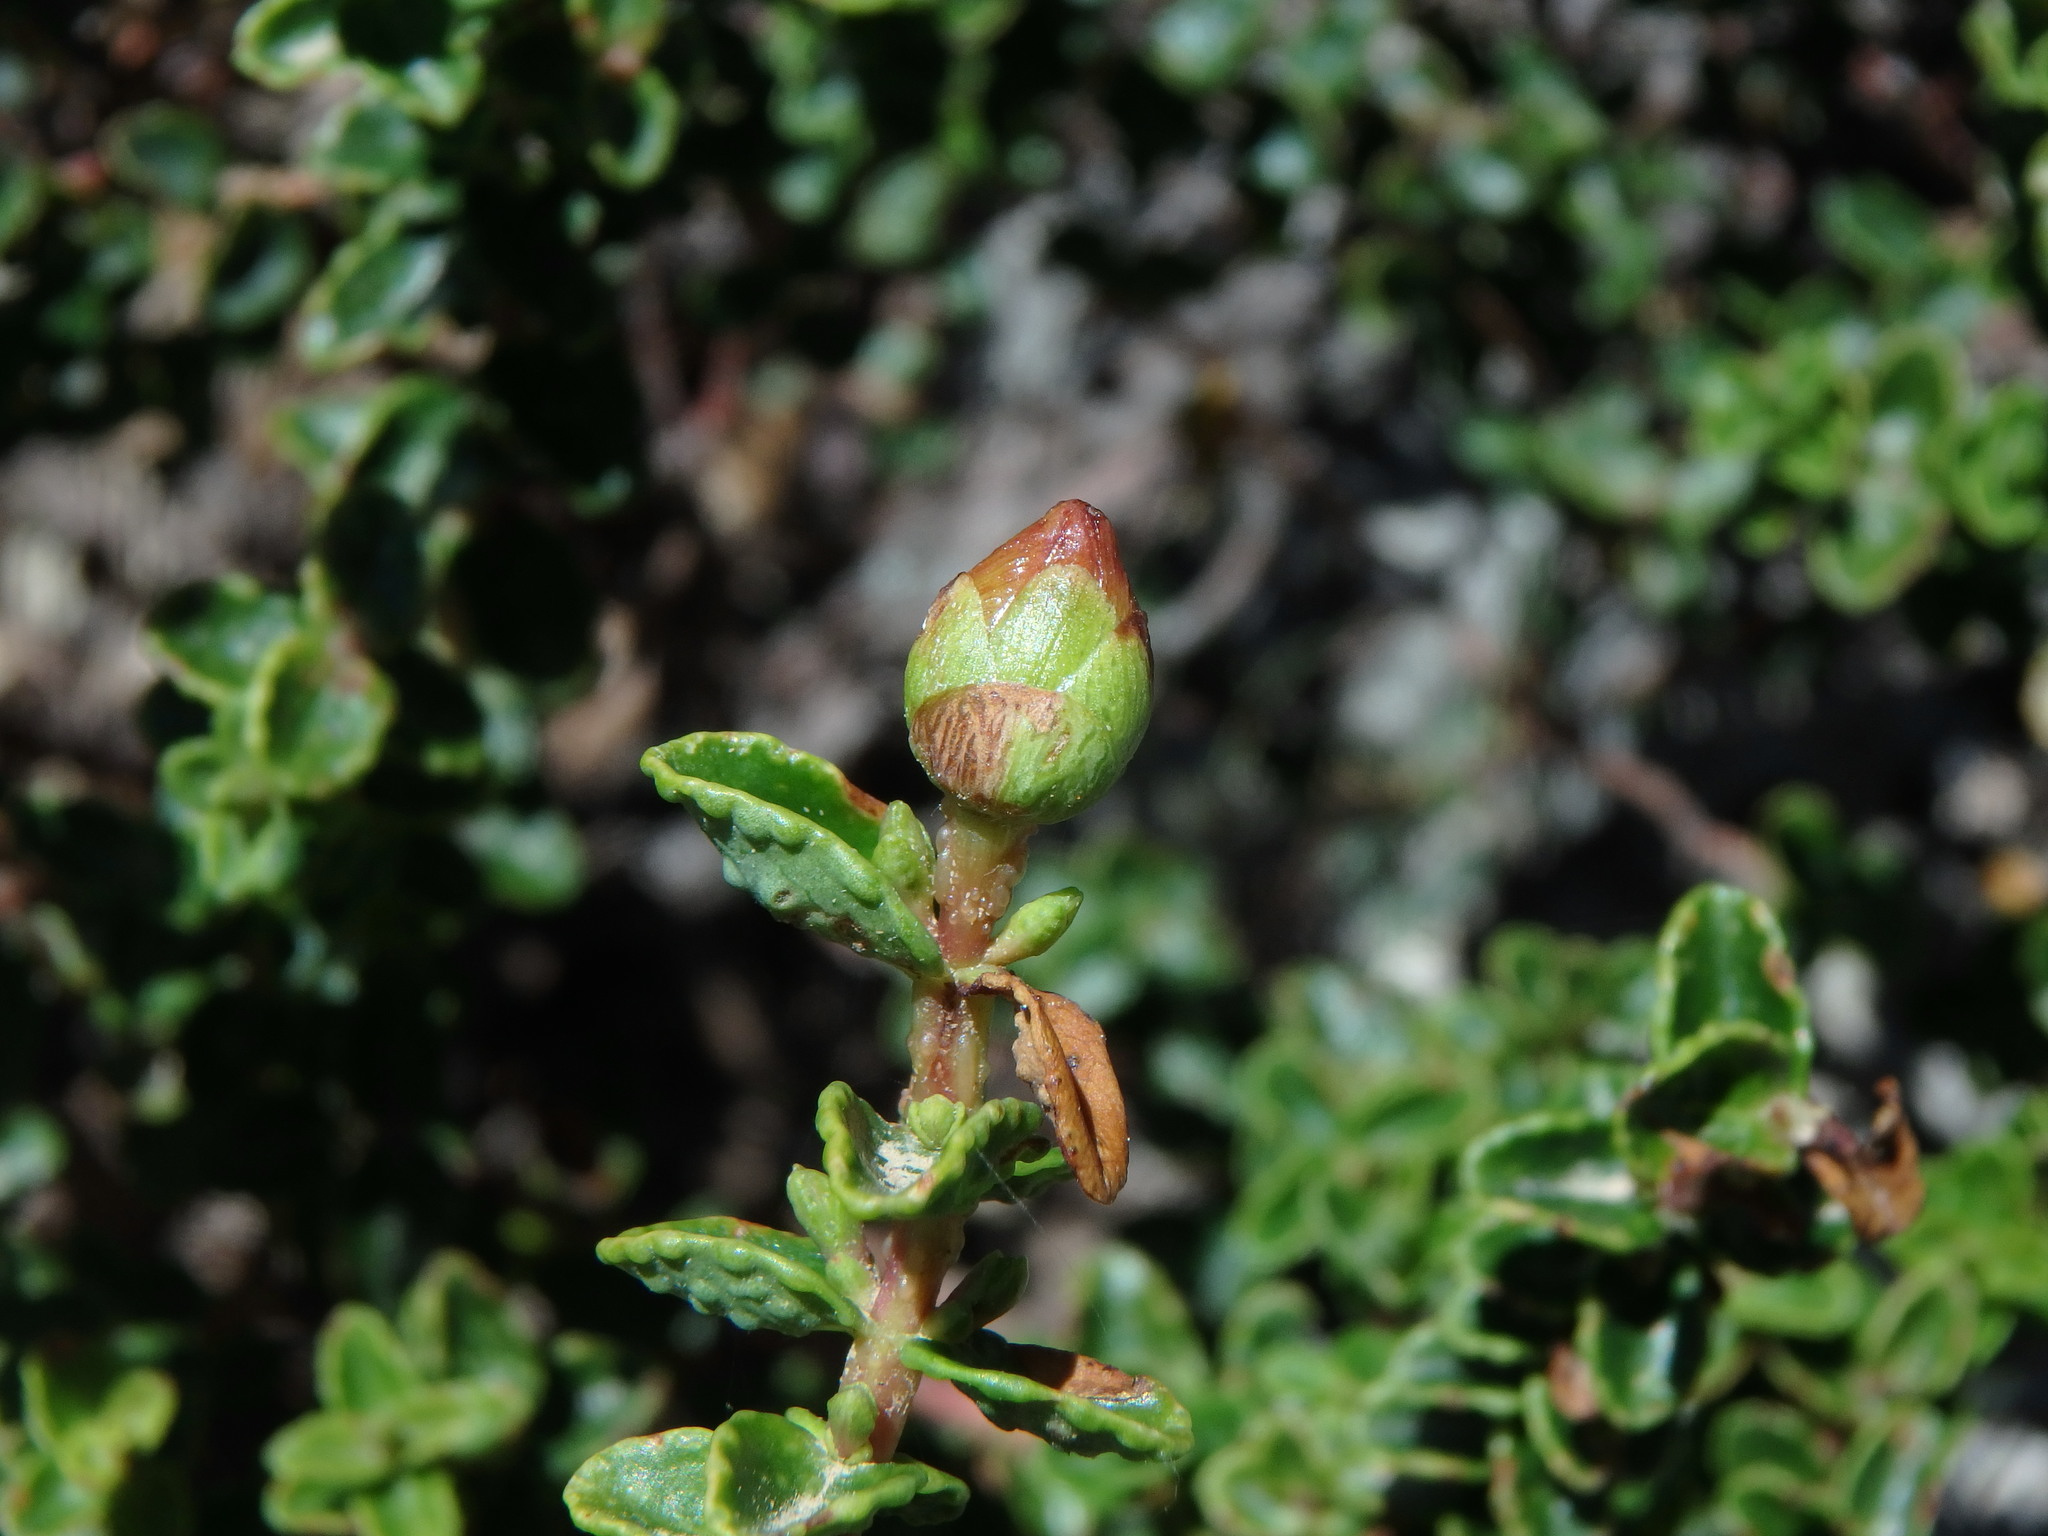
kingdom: Plantae
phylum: Tracheophyta
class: Magnoliopsida
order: Malpighiales
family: Hypericaceae
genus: Hypericum
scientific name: Hypericum balearicum
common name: Majorca st john's wort
